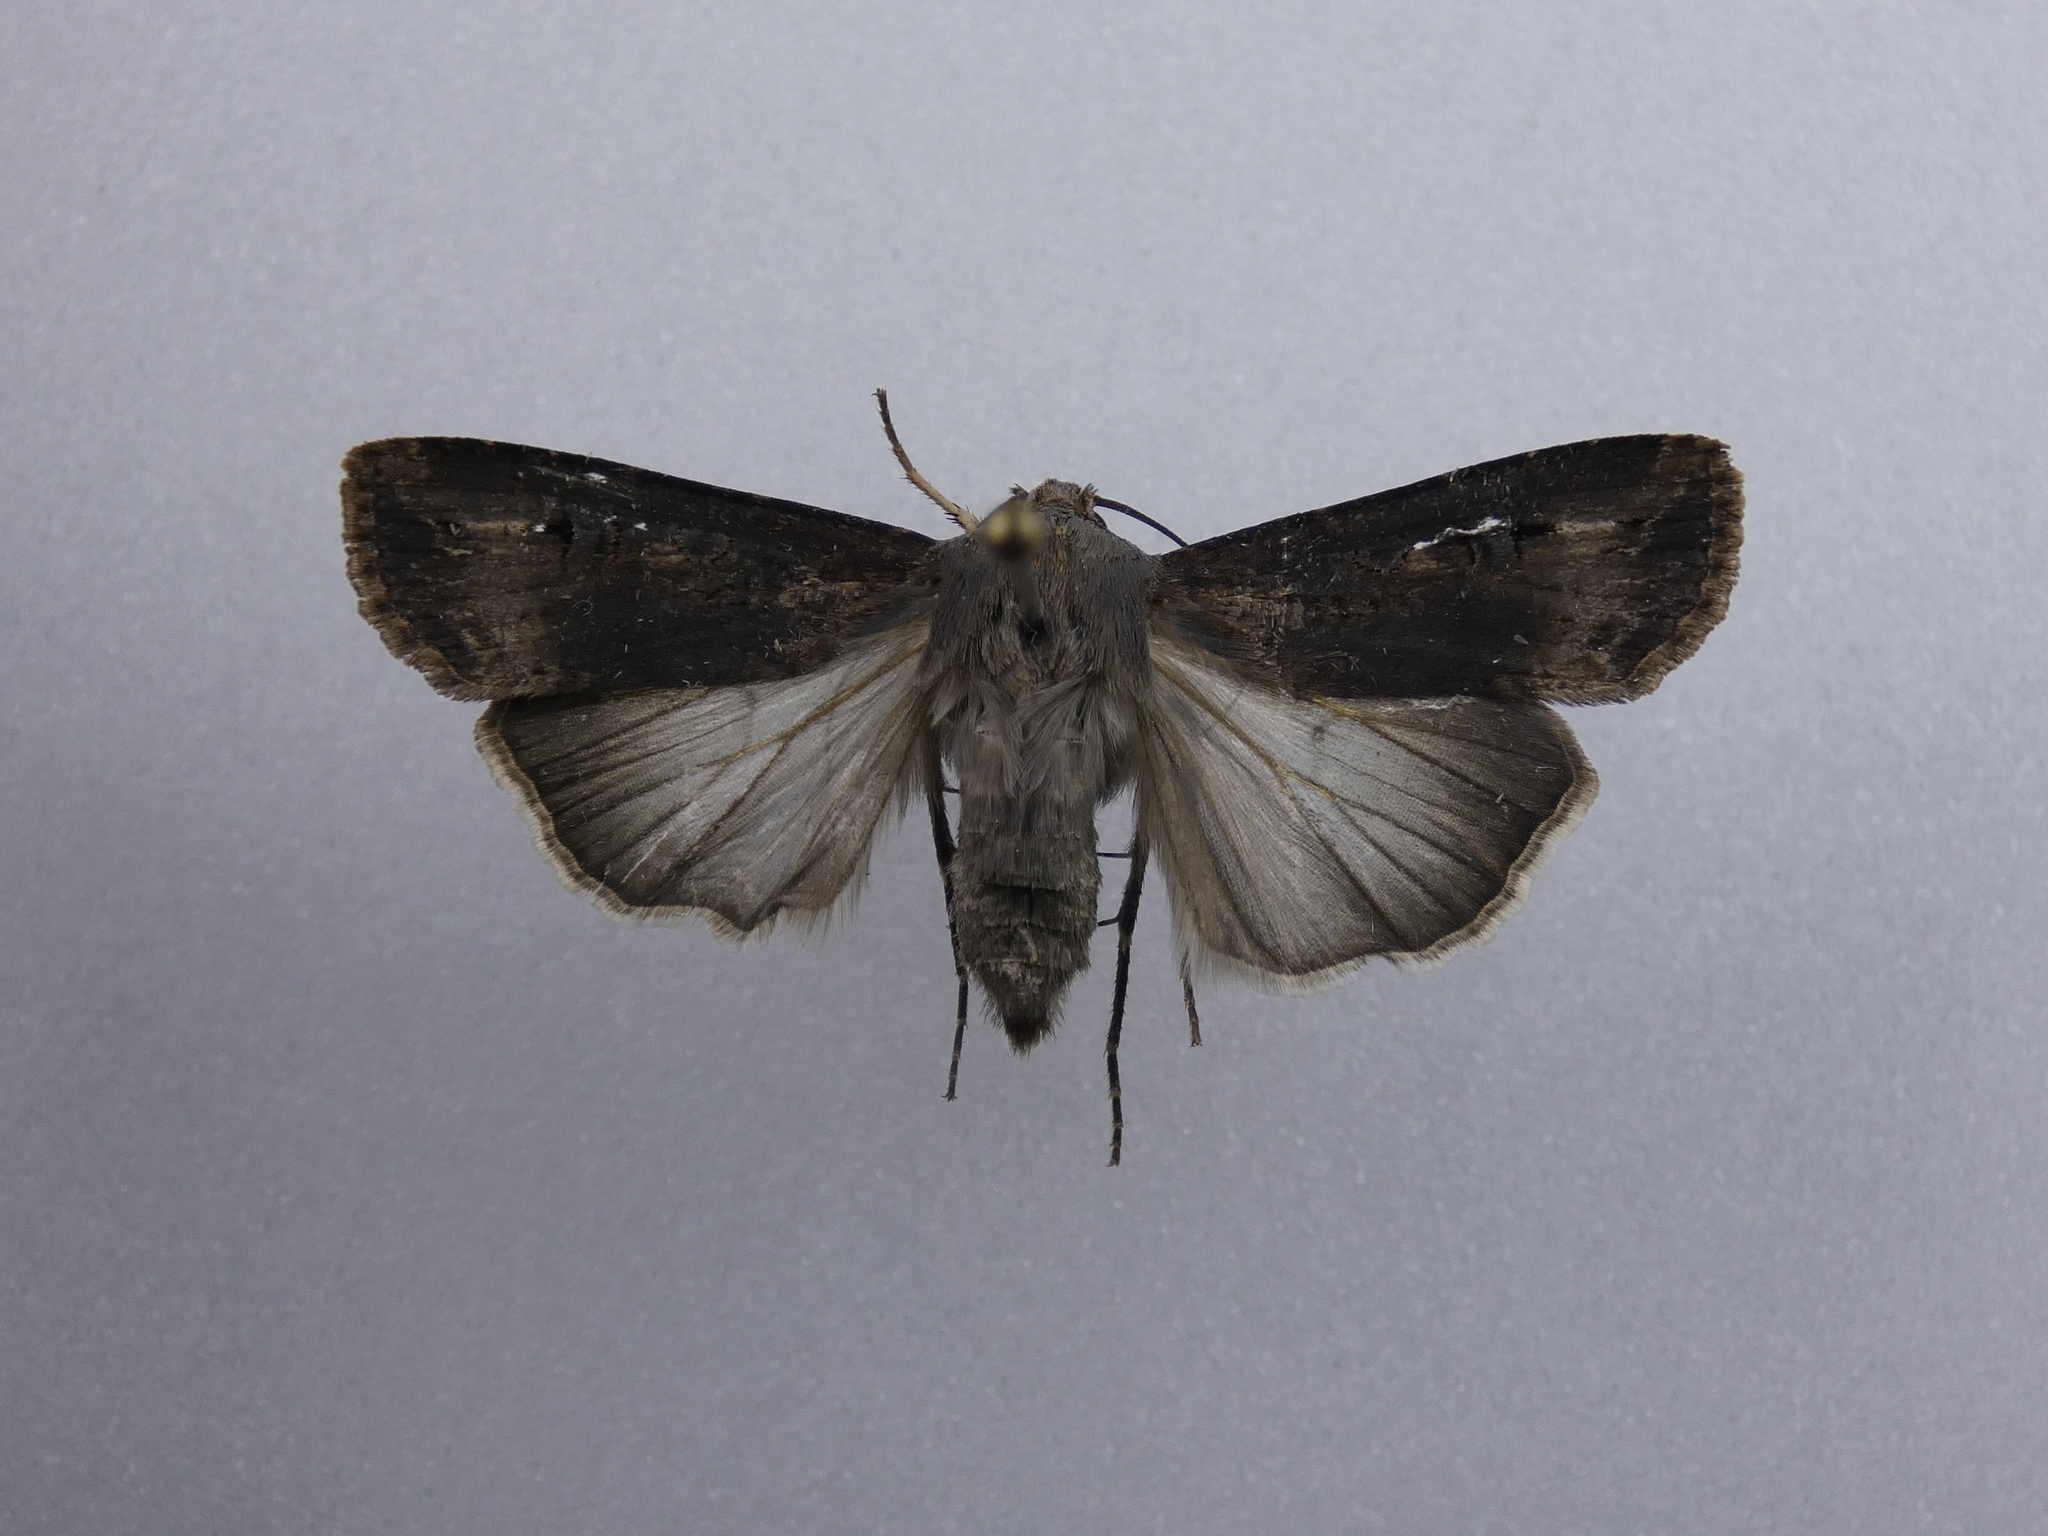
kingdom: Animalia
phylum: Arthropoda
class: Insecta
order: Lepidoptera
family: Noctuidae
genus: Agrotis
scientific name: Agrotis ipsilon
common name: Dark sword-grass
